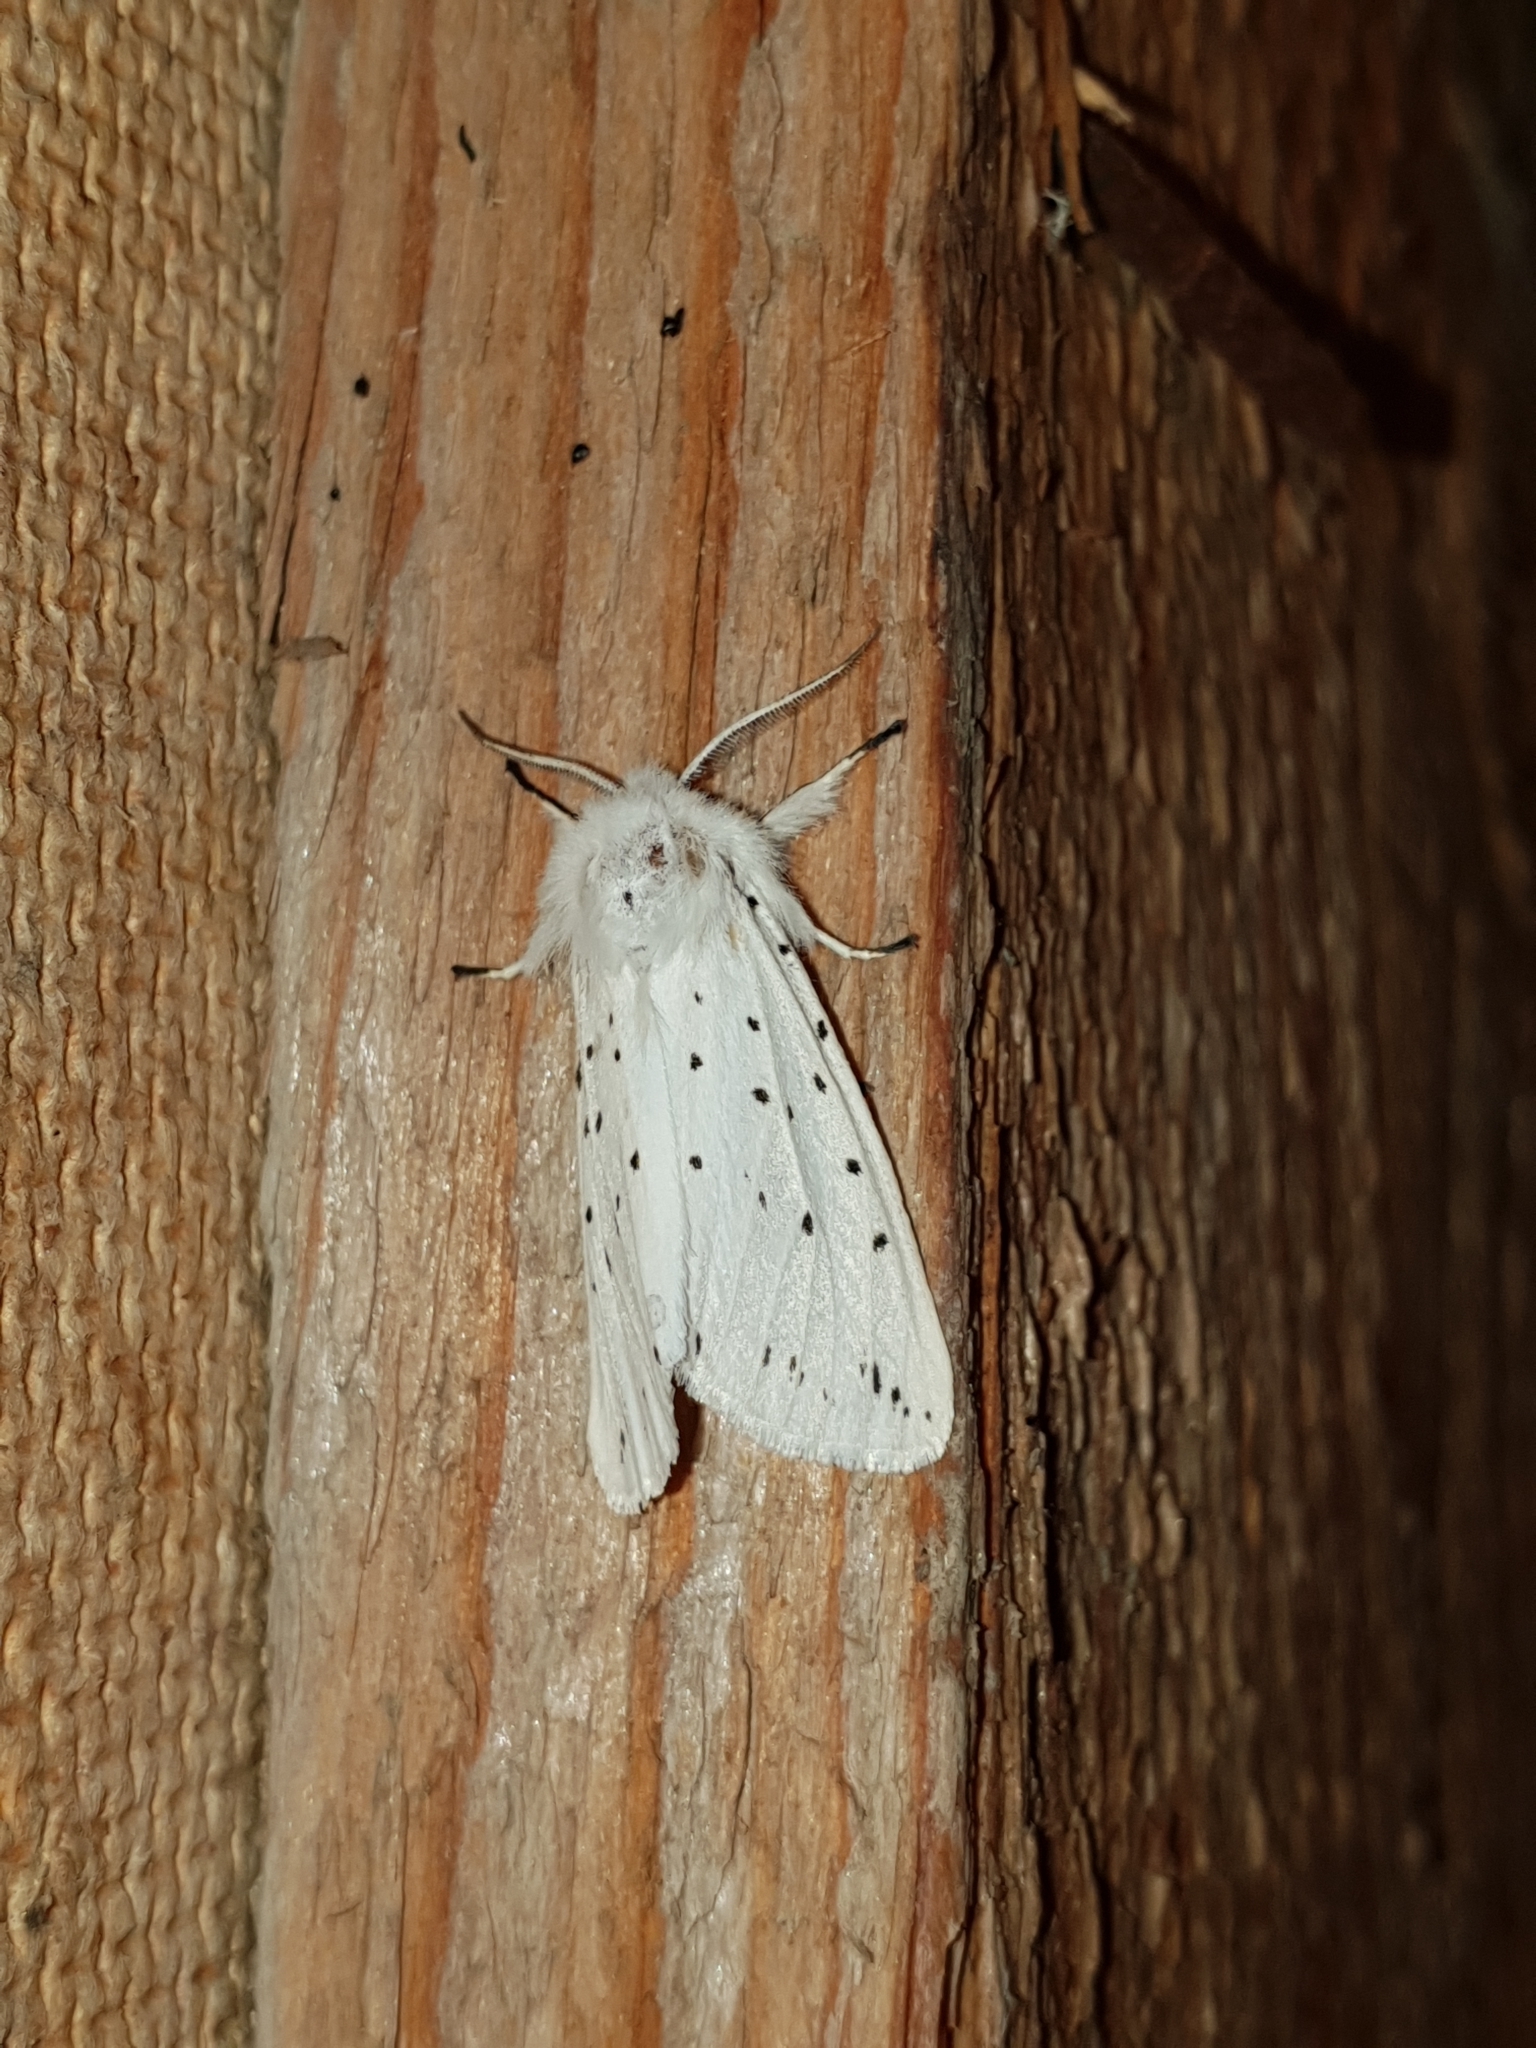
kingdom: Animalia
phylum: Arthropoda
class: Insecta
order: Lepidoptera
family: Erebidae
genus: Spilosoma
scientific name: Spilosoma lubricipeda
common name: White ermine
